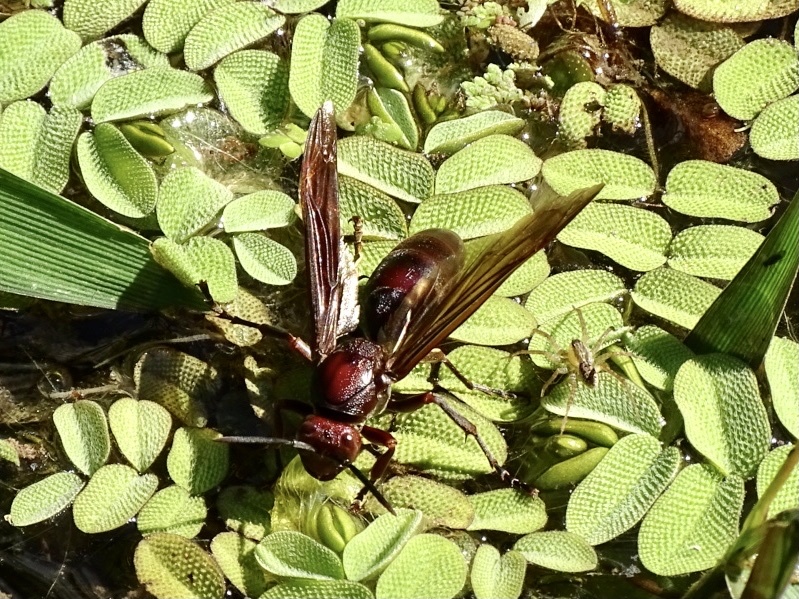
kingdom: Animalia
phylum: Arthropoda
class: Insecta
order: Hymenoptera
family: Eumenidae
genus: Polistes
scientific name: Polistes gigas
